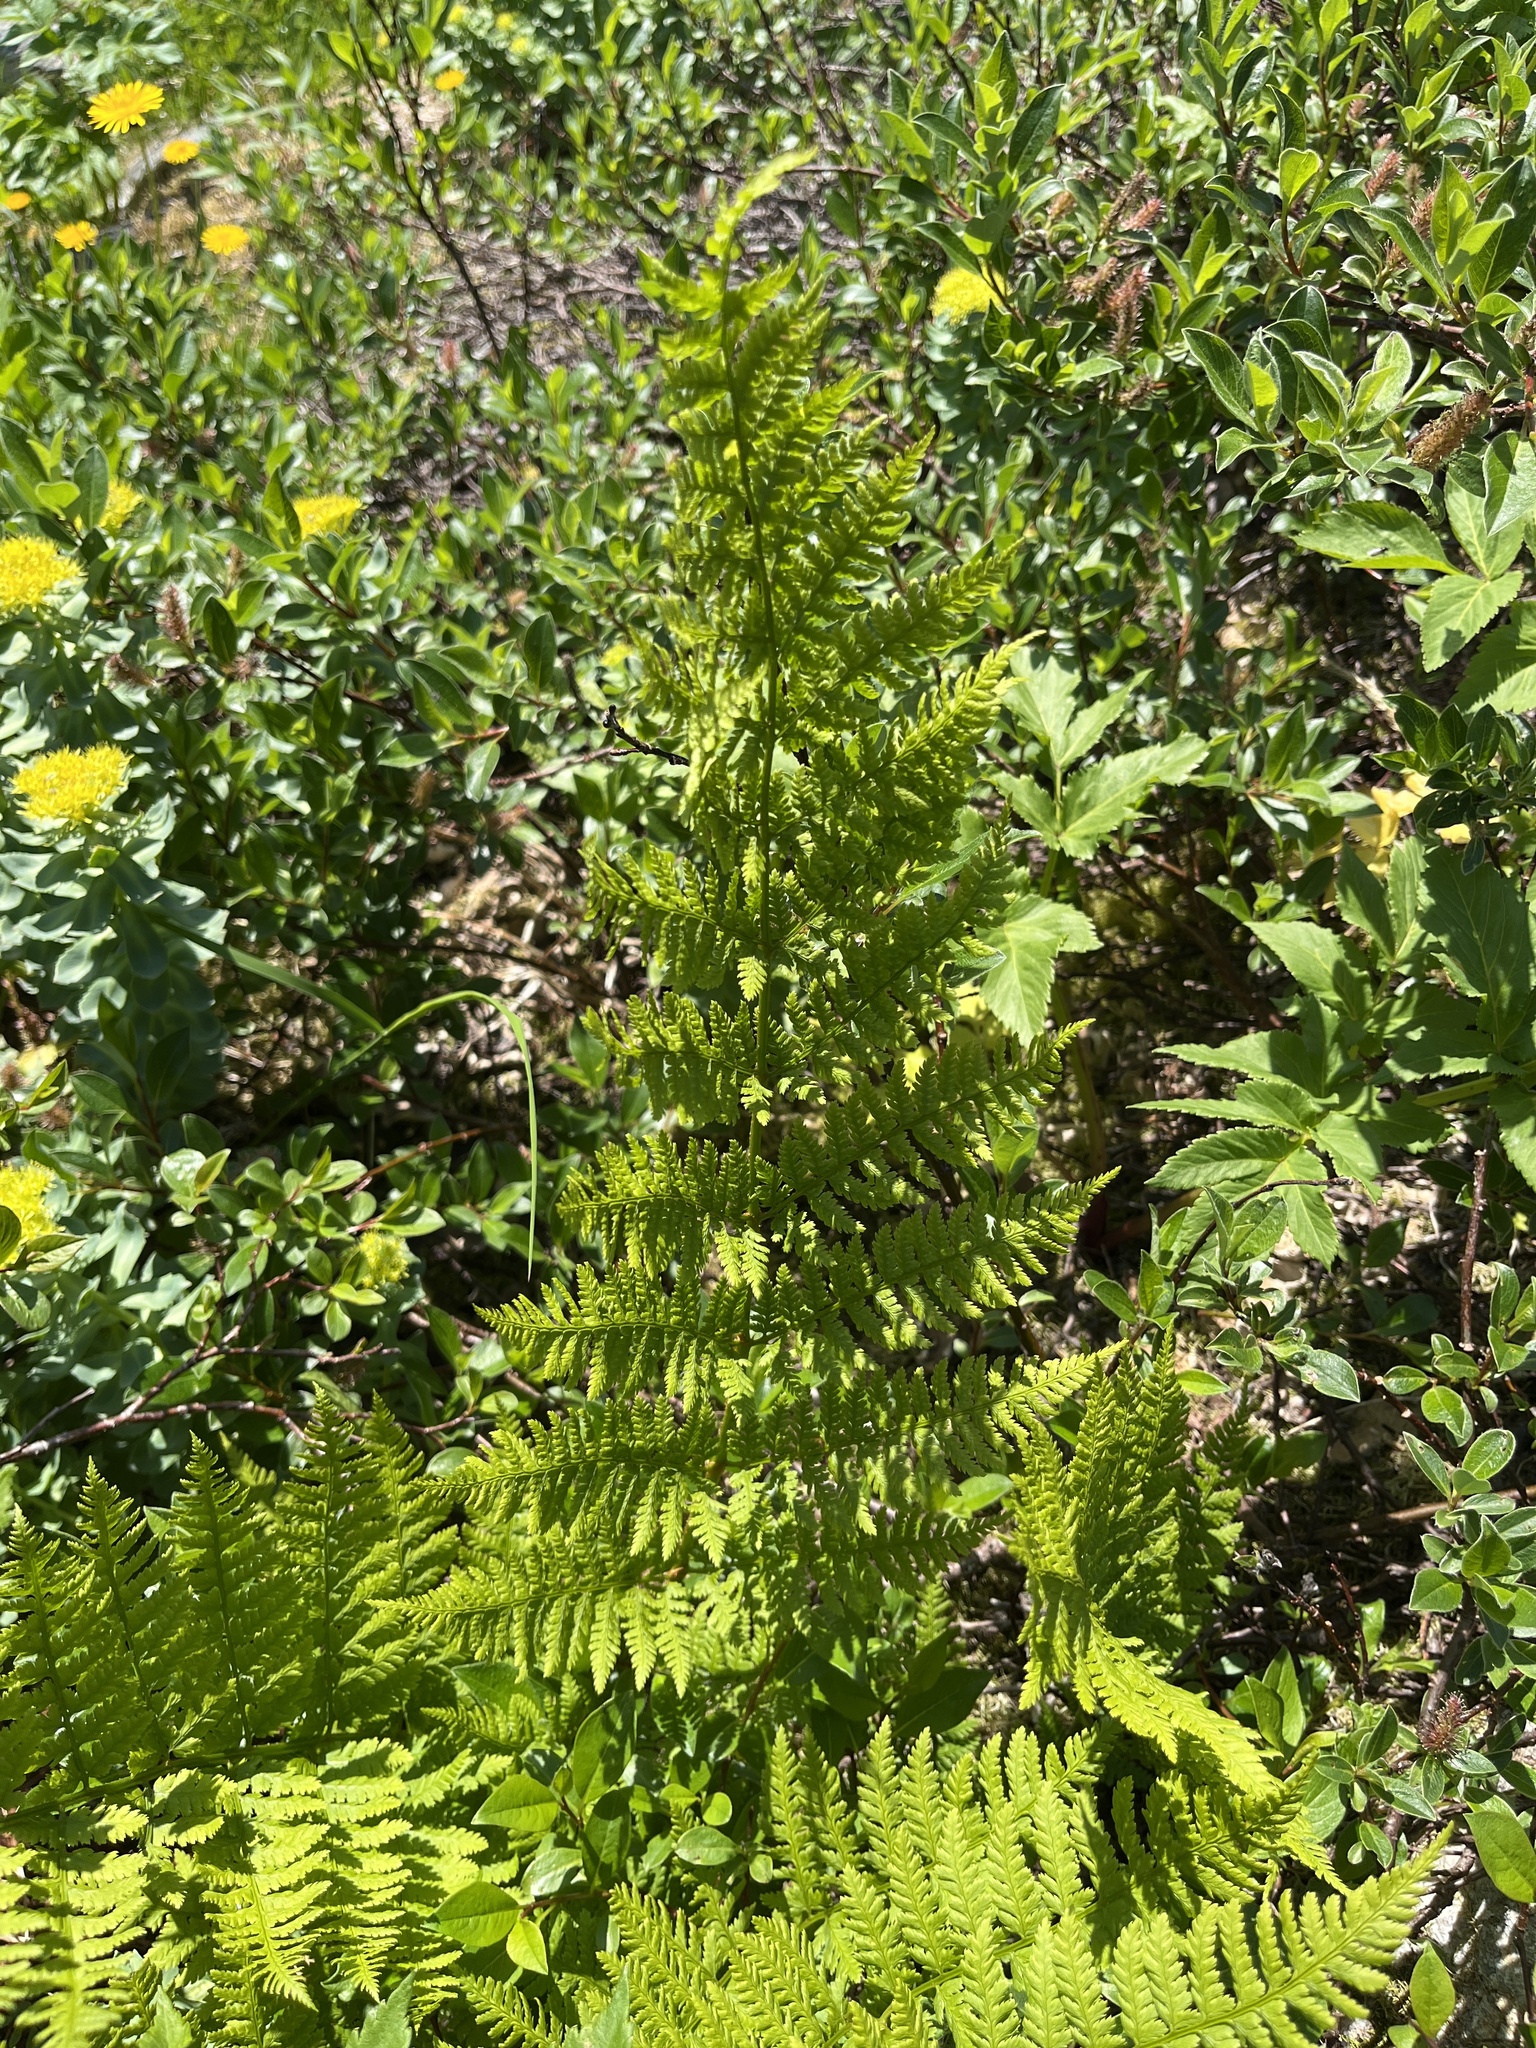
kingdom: Plantae
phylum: Tracheophyta
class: Polypodiopsida
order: Polypodiales
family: Dryopteridaceae
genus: Dryopteris
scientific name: Dryopteris expansa
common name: Northern buckler fern
